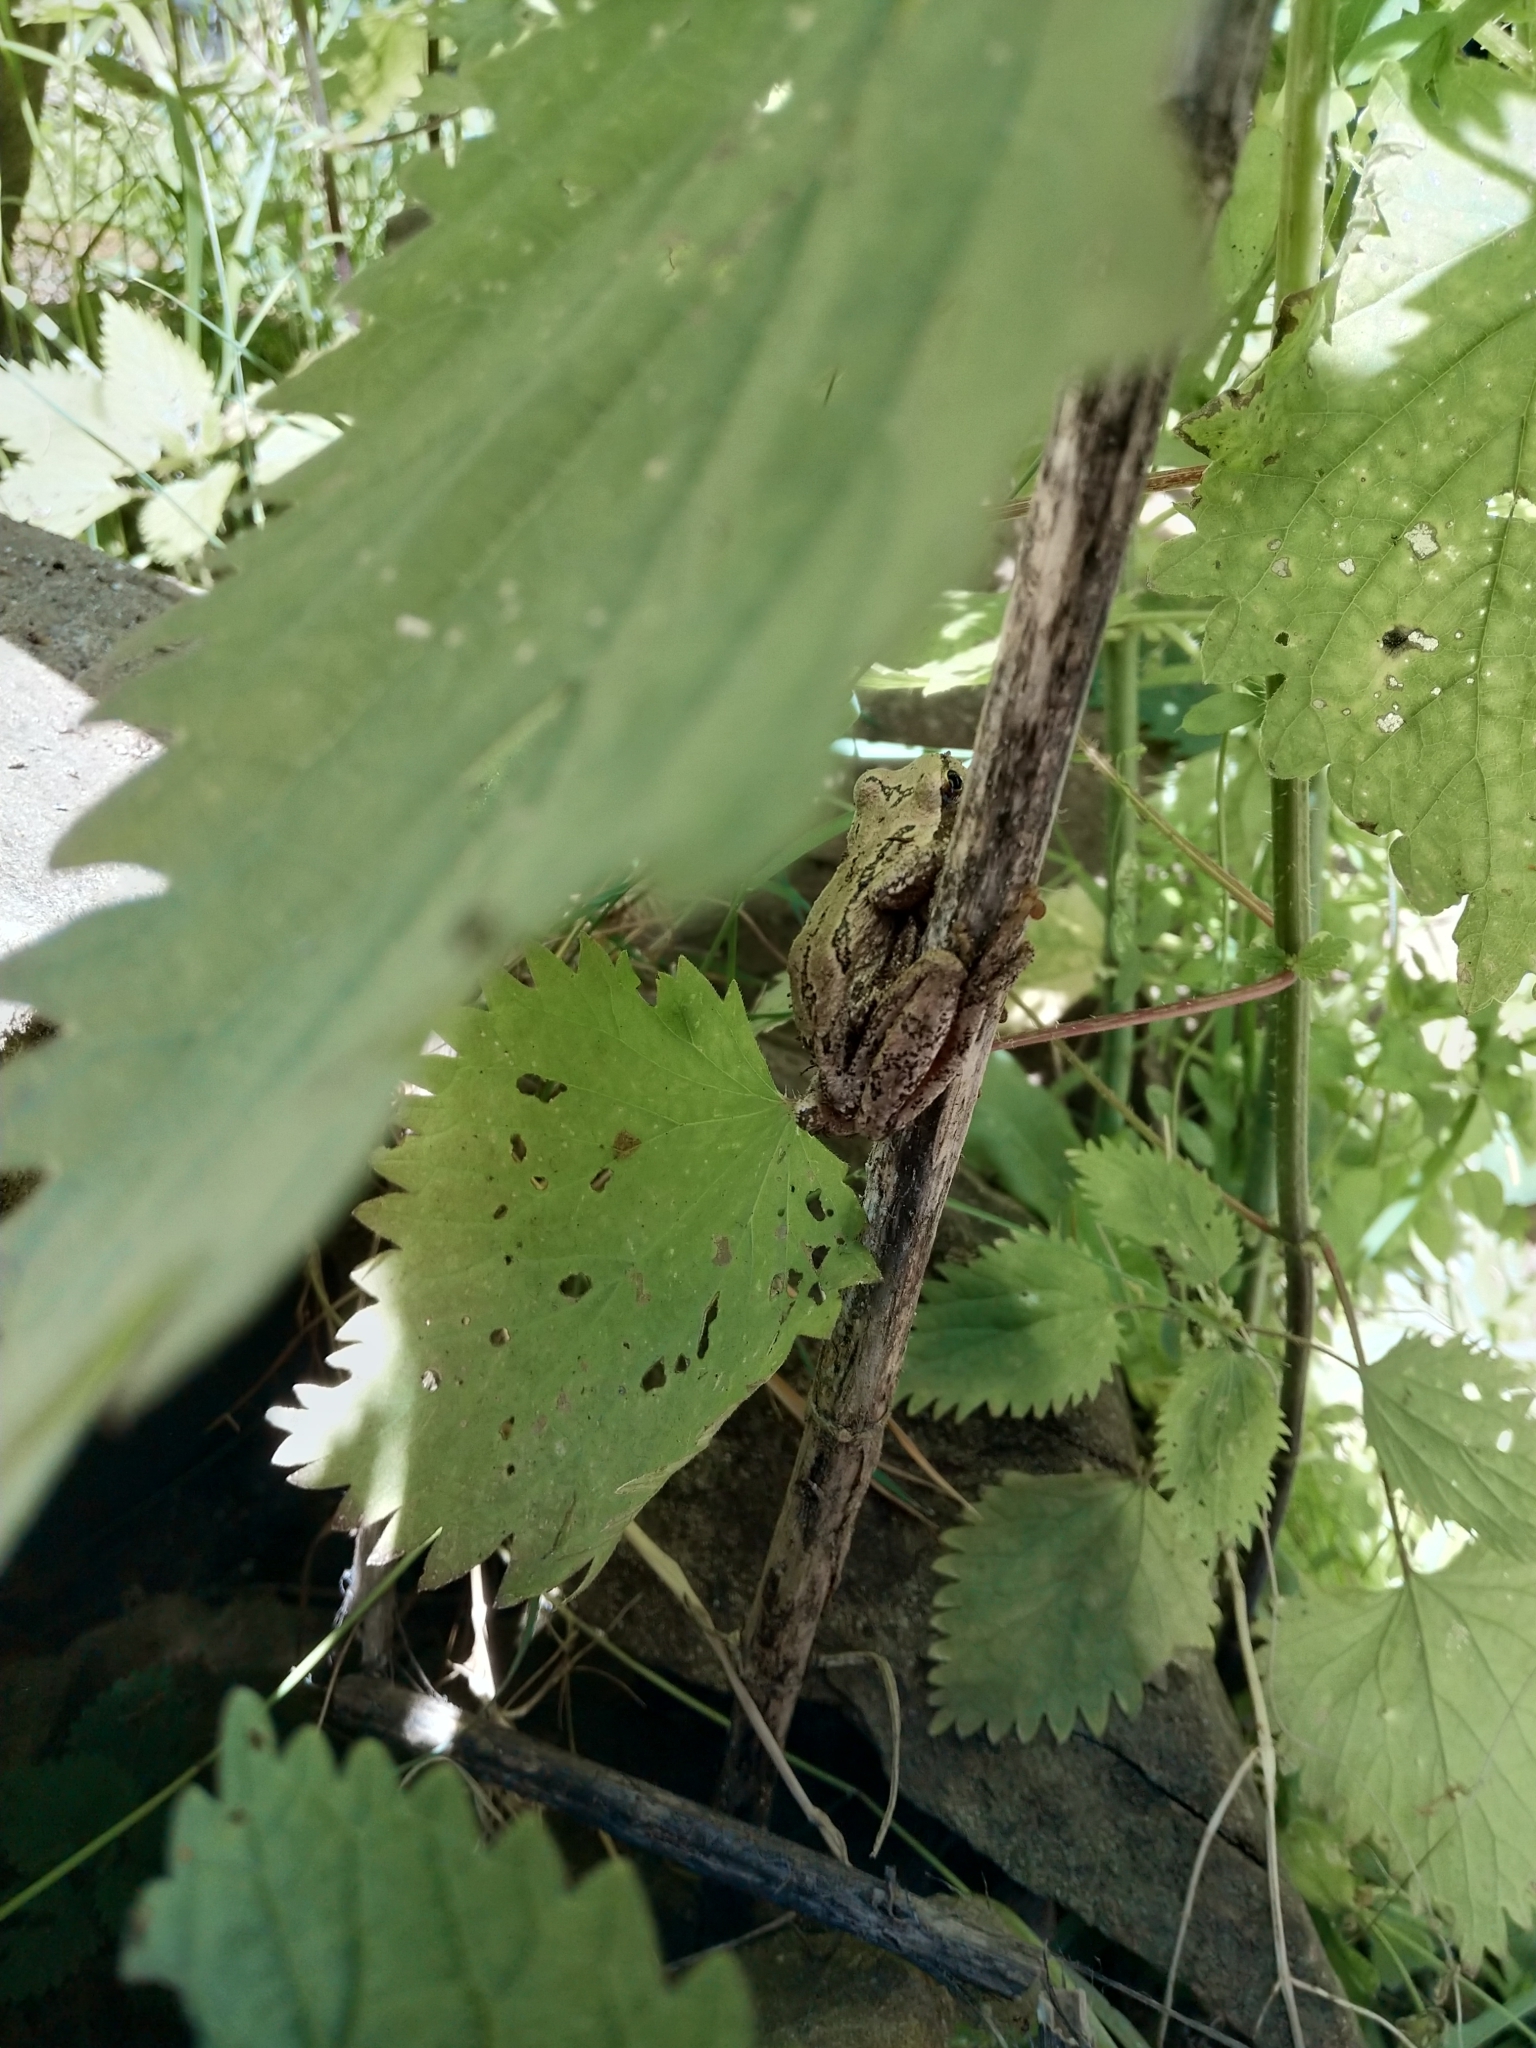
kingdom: Animalia
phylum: Chordata
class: Amphibia
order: Anura
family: Hylidae
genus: Pseudacris
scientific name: Pseudacris regilla
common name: Pacific chorus frog
